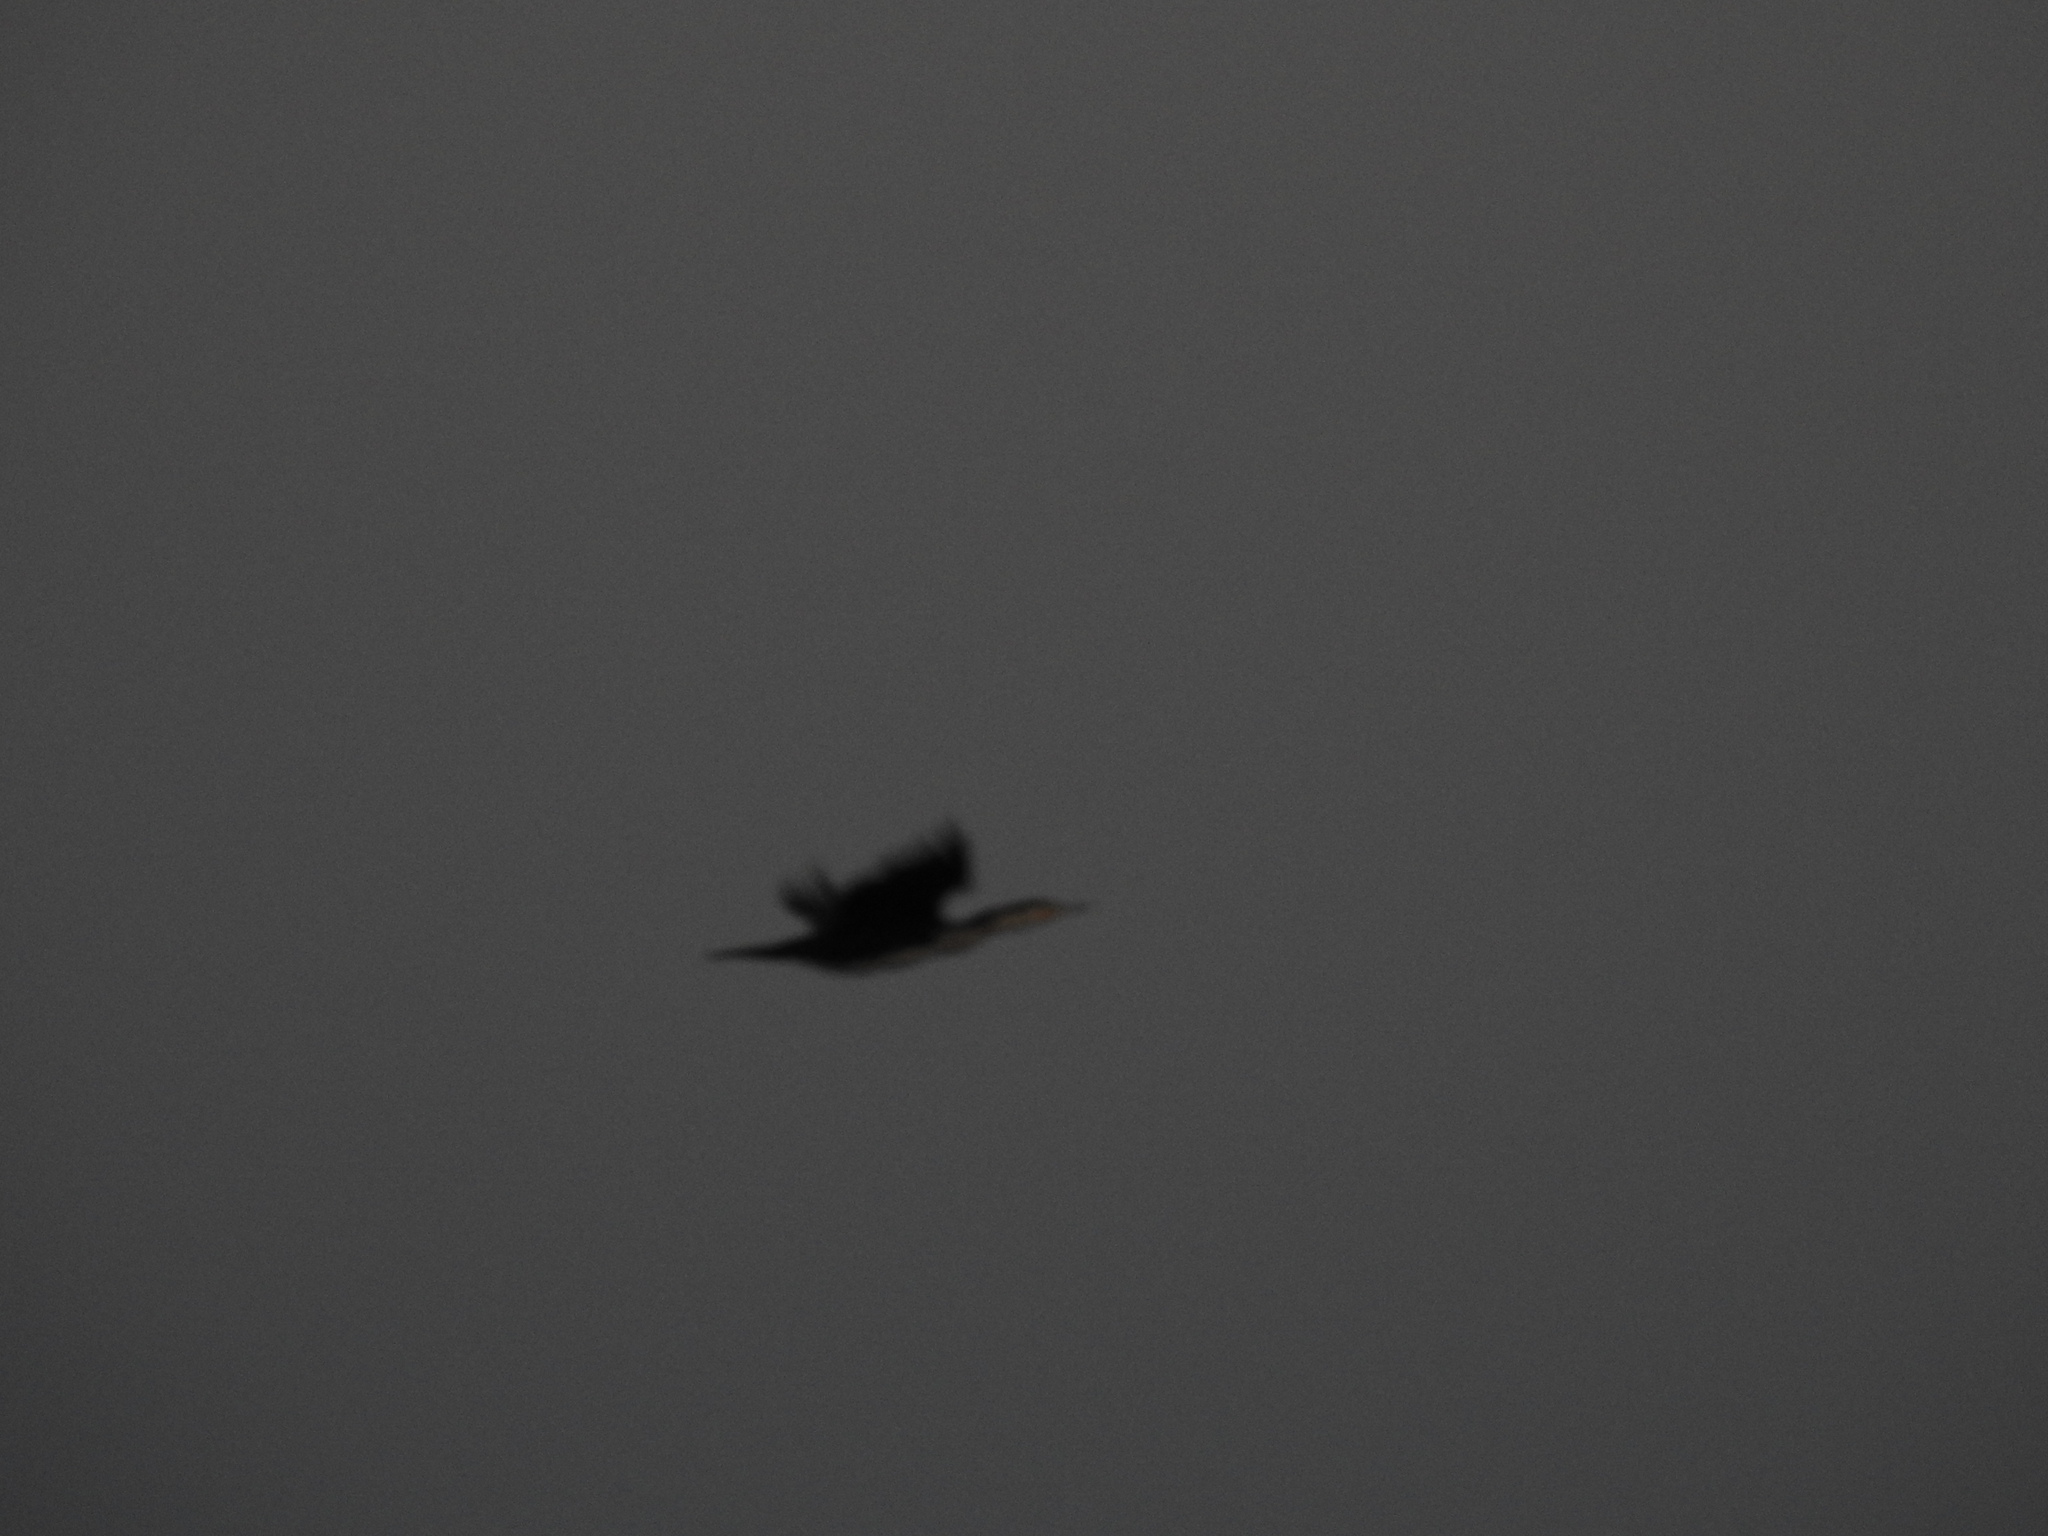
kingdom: Animalia
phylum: Chordata
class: Aves
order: Suliformes
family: Phalacrocoracidae
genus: Phalacrocorax
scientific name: Phalacrocorax carbo
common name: Great cormorant
